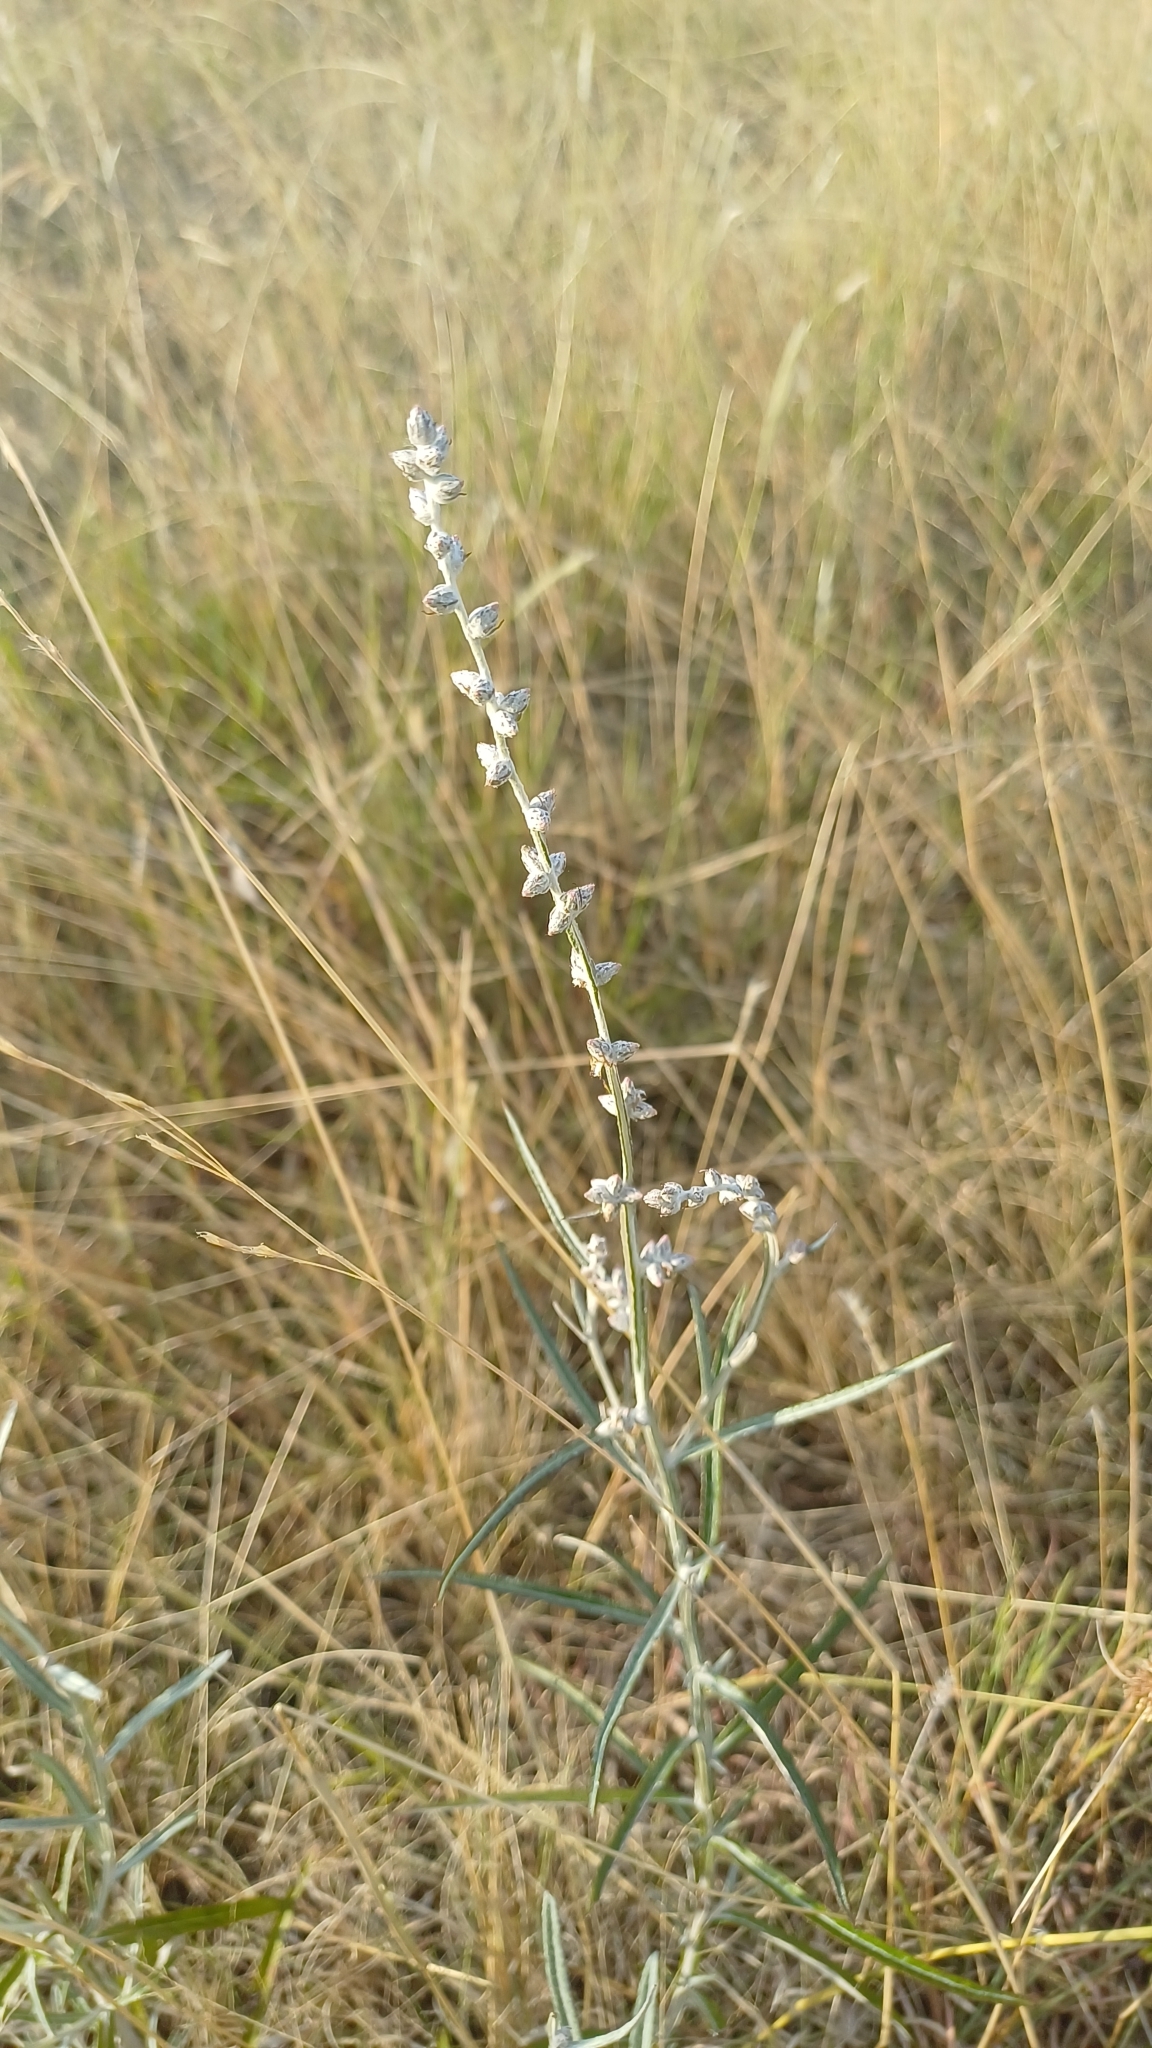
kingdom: Plantae
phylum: Tracheophyta
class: Magnoliopsida
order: Asterales
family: Asteraceae
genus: Pterocaulon
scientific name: Pterocaulon virgatum
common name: Wand blackroot
